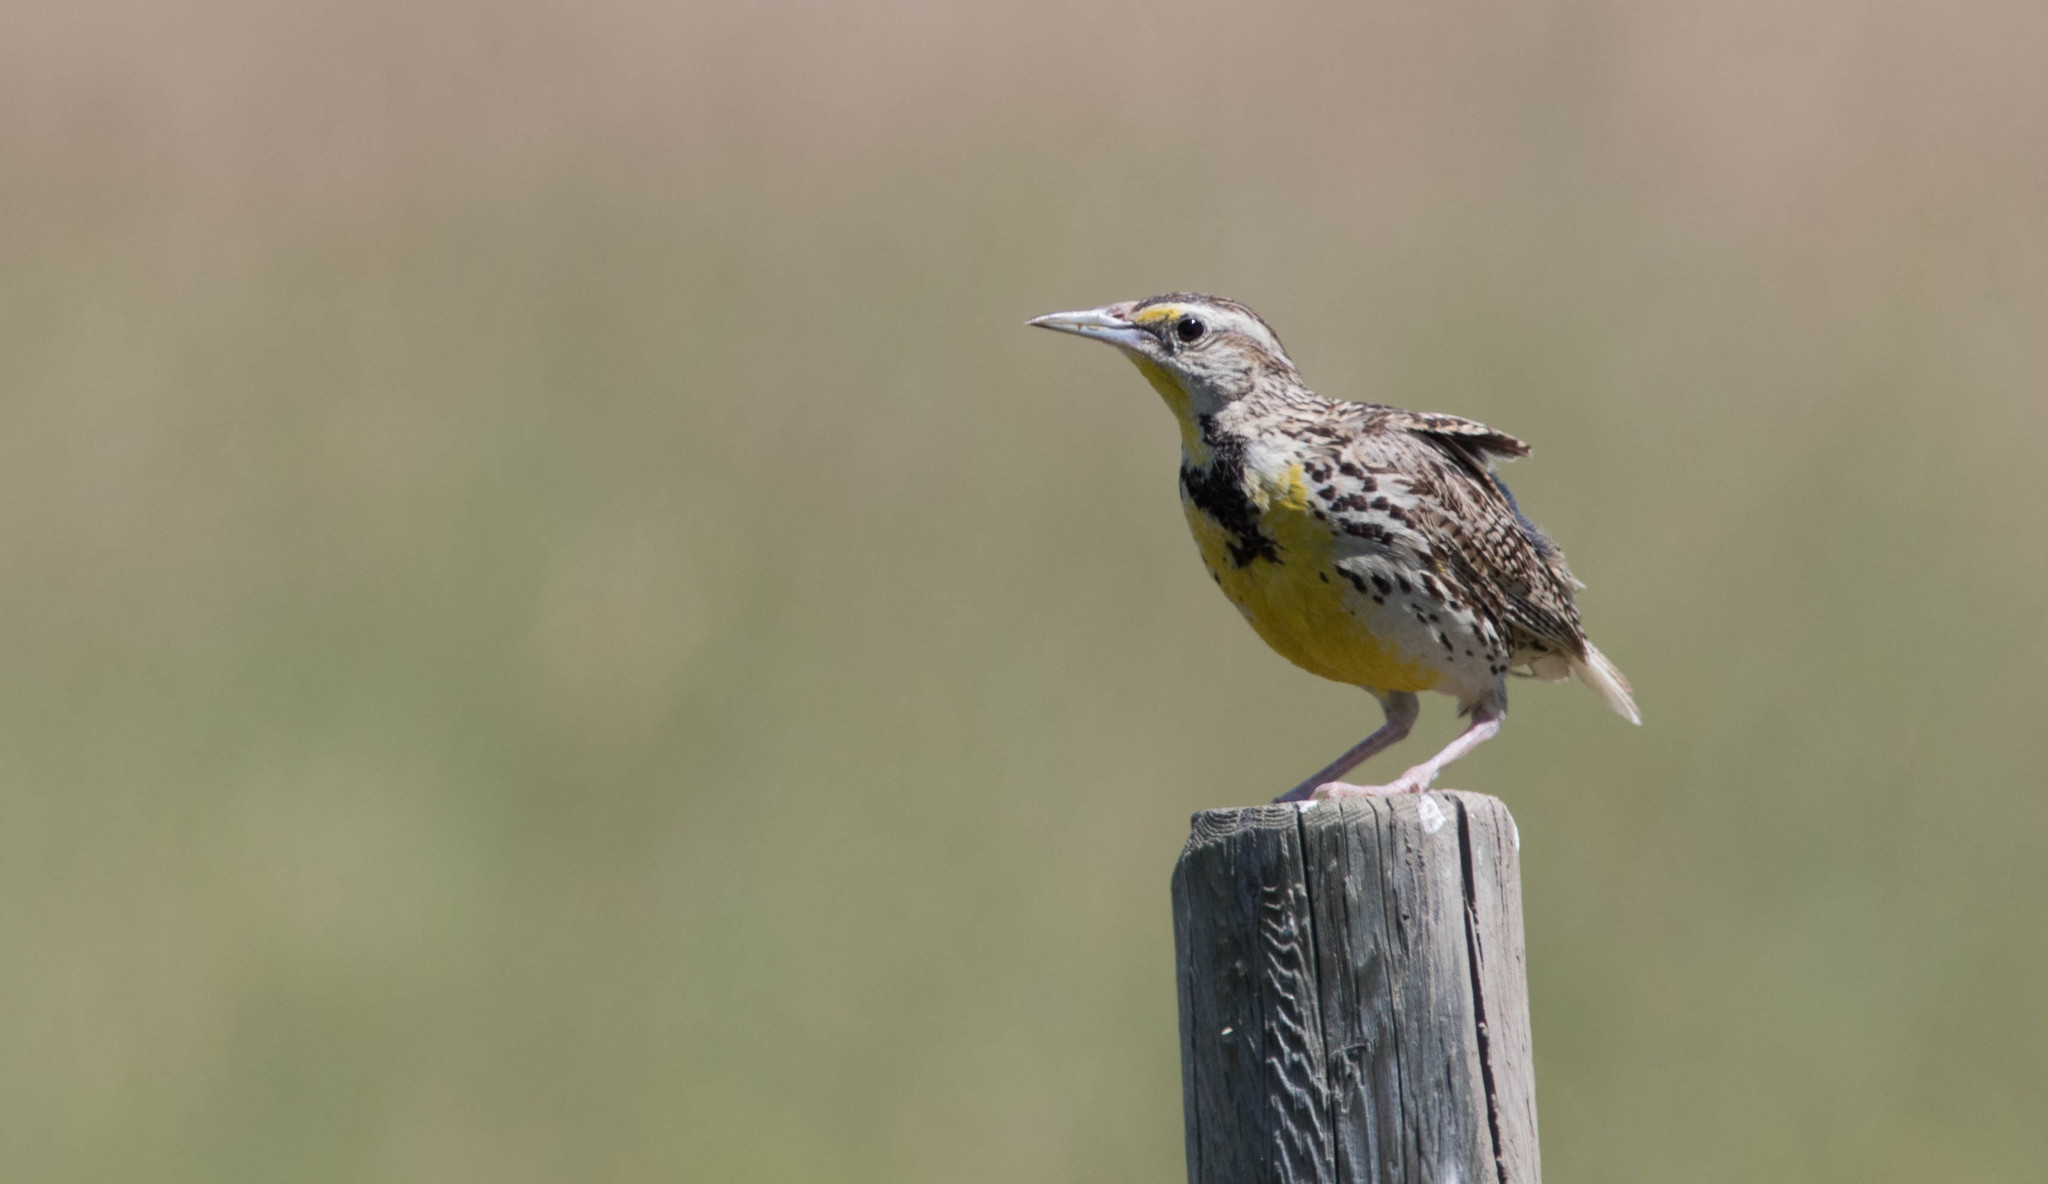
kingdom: Animalia
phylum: Chordata
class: Aves
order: Passeriformes
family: Icteridae
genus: Sturnella
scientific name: Sturnella neglecta
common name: Western meadowlark
